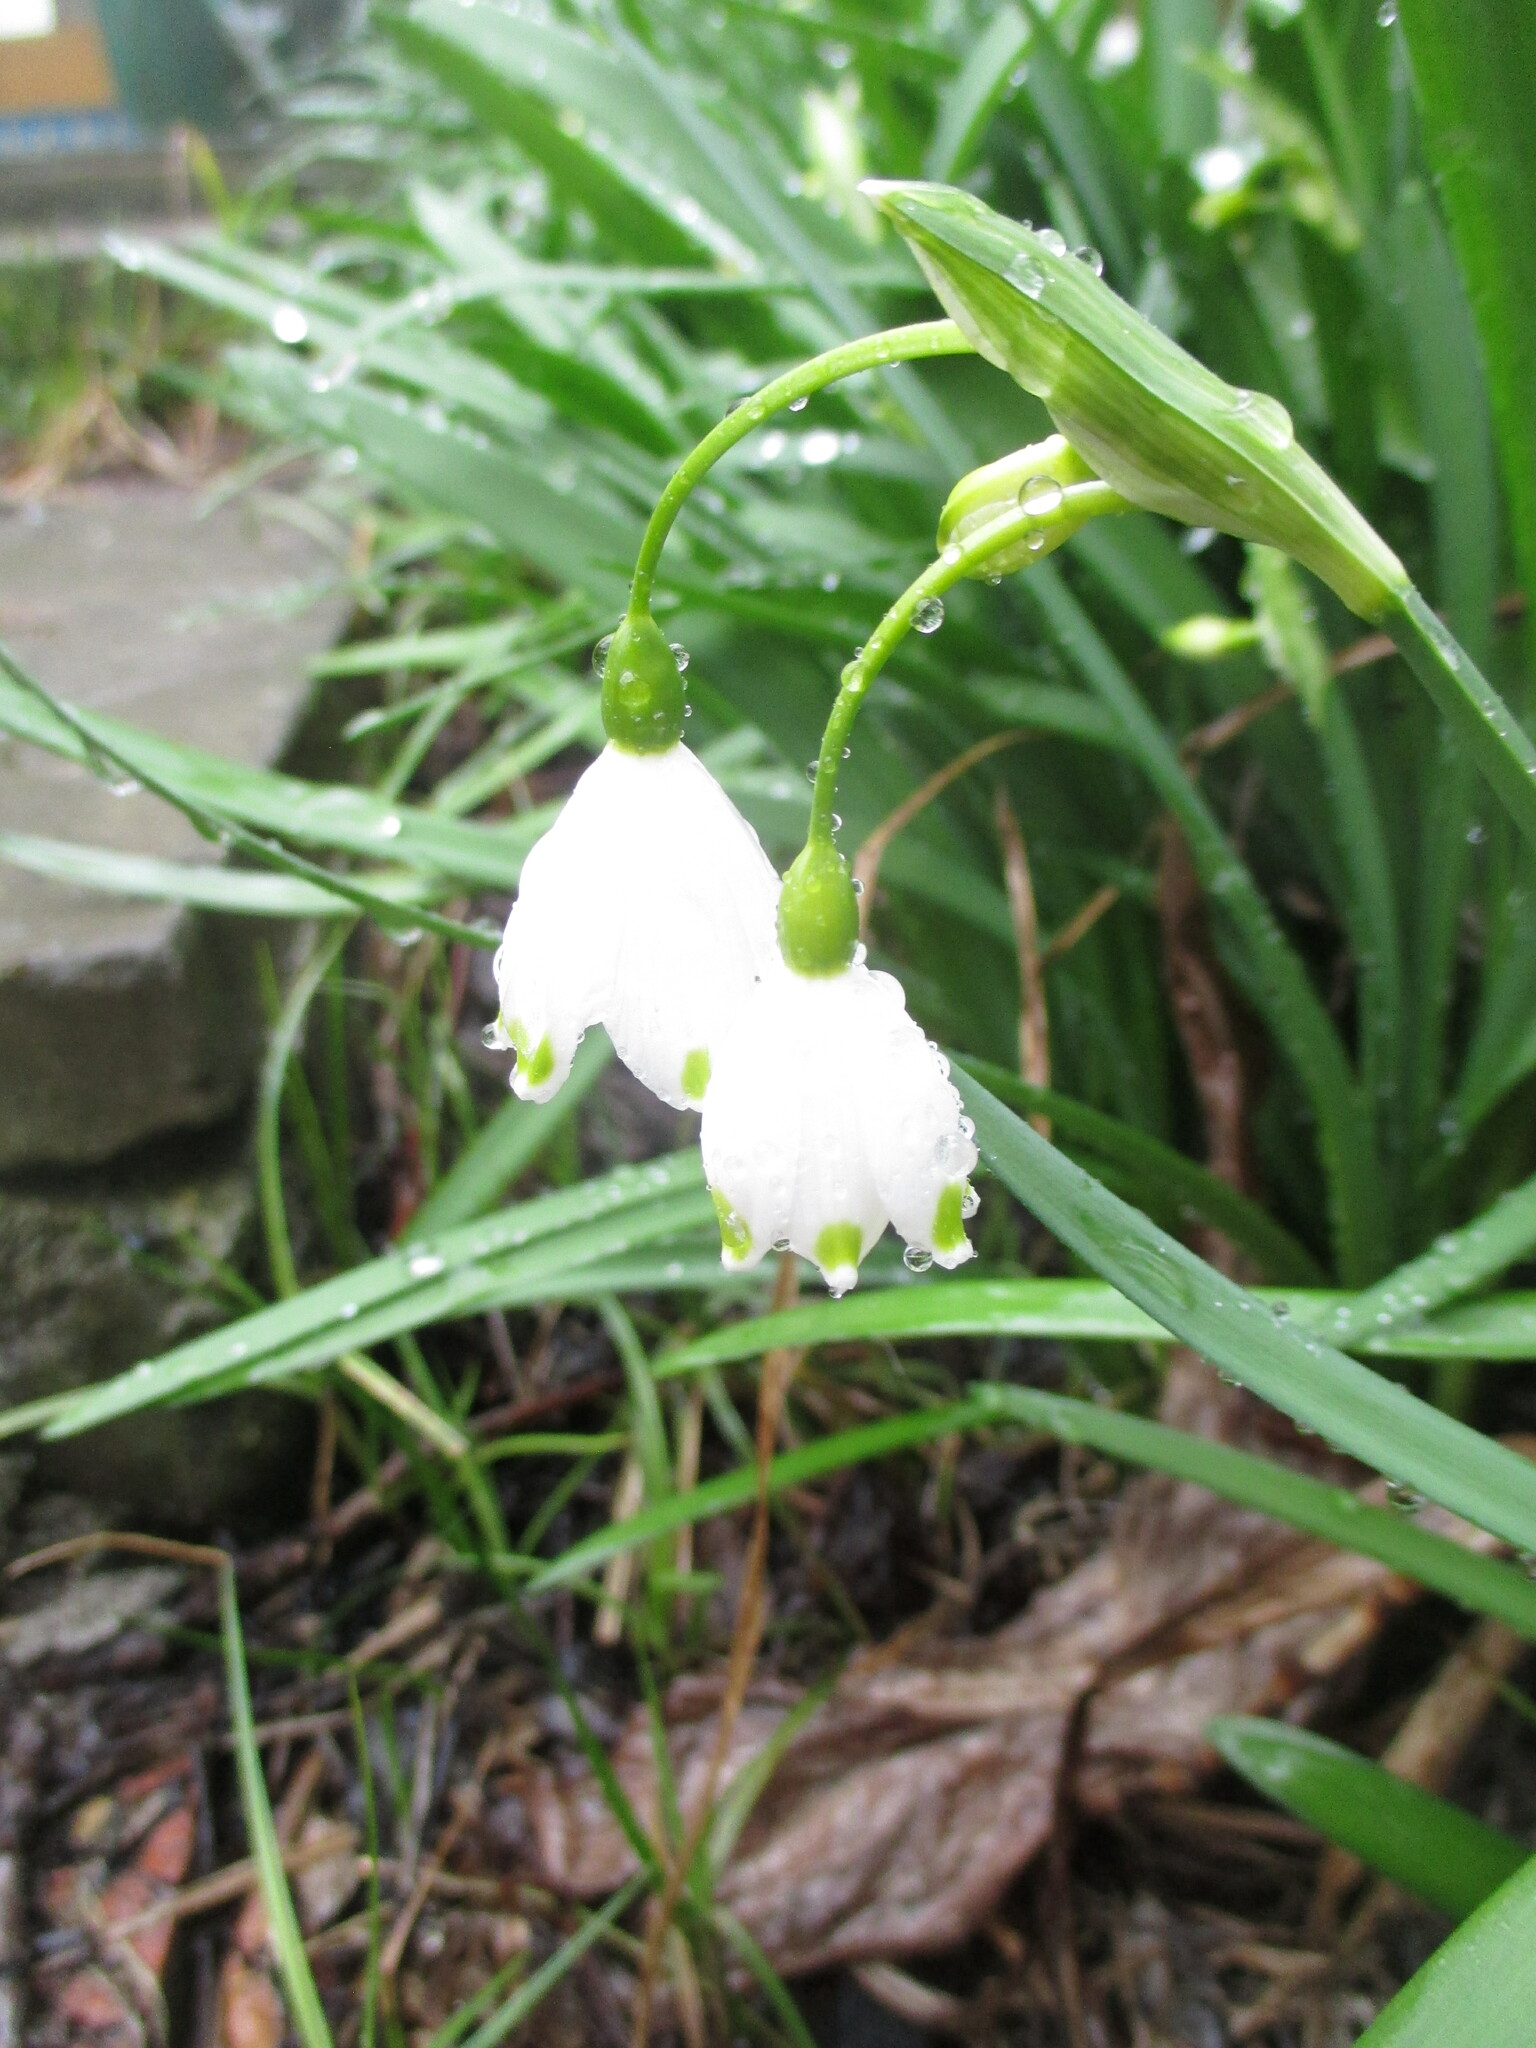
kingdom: Plantae
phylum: Tracheophyta
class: Liliopsida
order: Asparagales
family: Amaryllidaceae
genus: Leucojum
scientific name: Leucojum aestivum
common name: Summer snowflake
